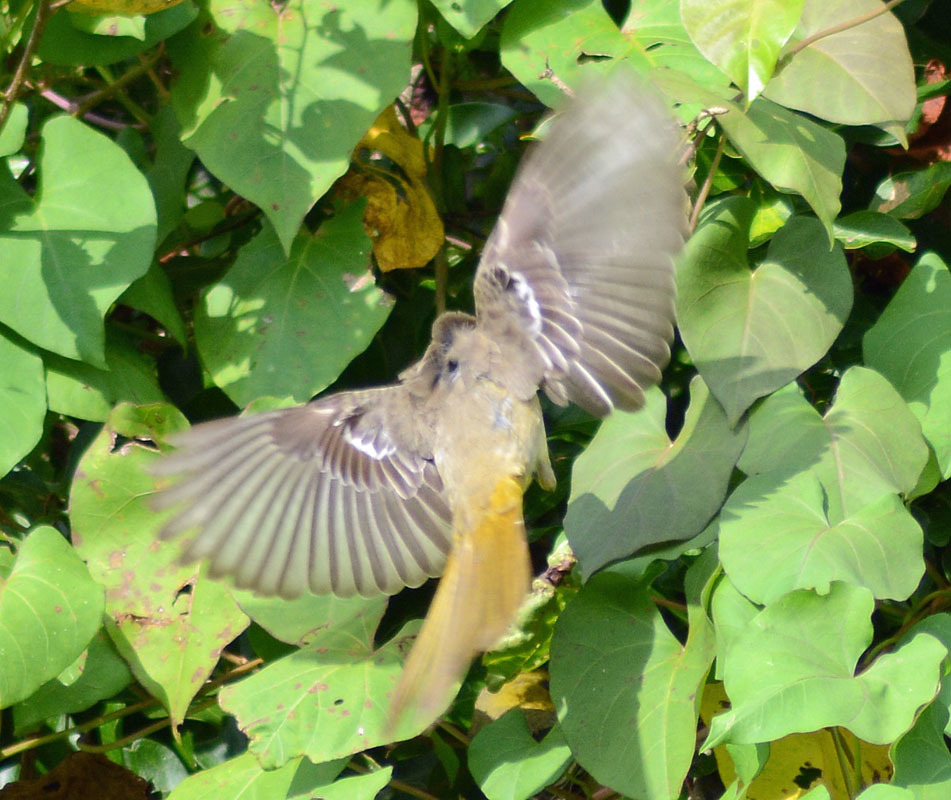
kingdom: Animalia
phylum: Chordata
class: Aves
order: Passeriformes
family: Icteridae
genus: Icterus
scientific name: Icterus galbula
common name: Baltimore oriole
